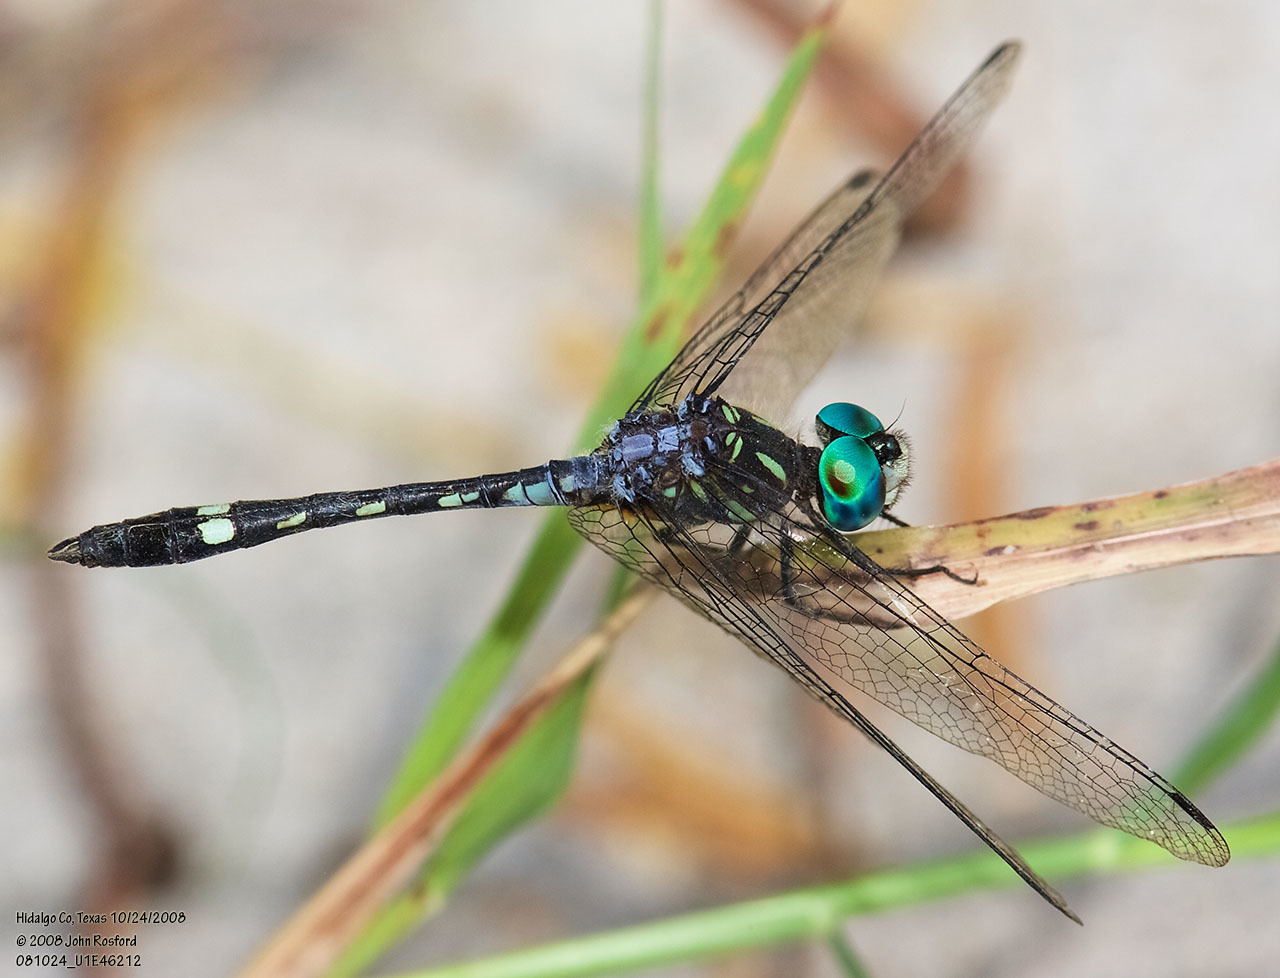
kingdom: Animalia
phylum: Arthropoda
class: Insecta
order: Odonata
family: Libellulidae
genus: Micrathyria
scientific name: Micrathyria hagenii
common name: Thornbush dasher
